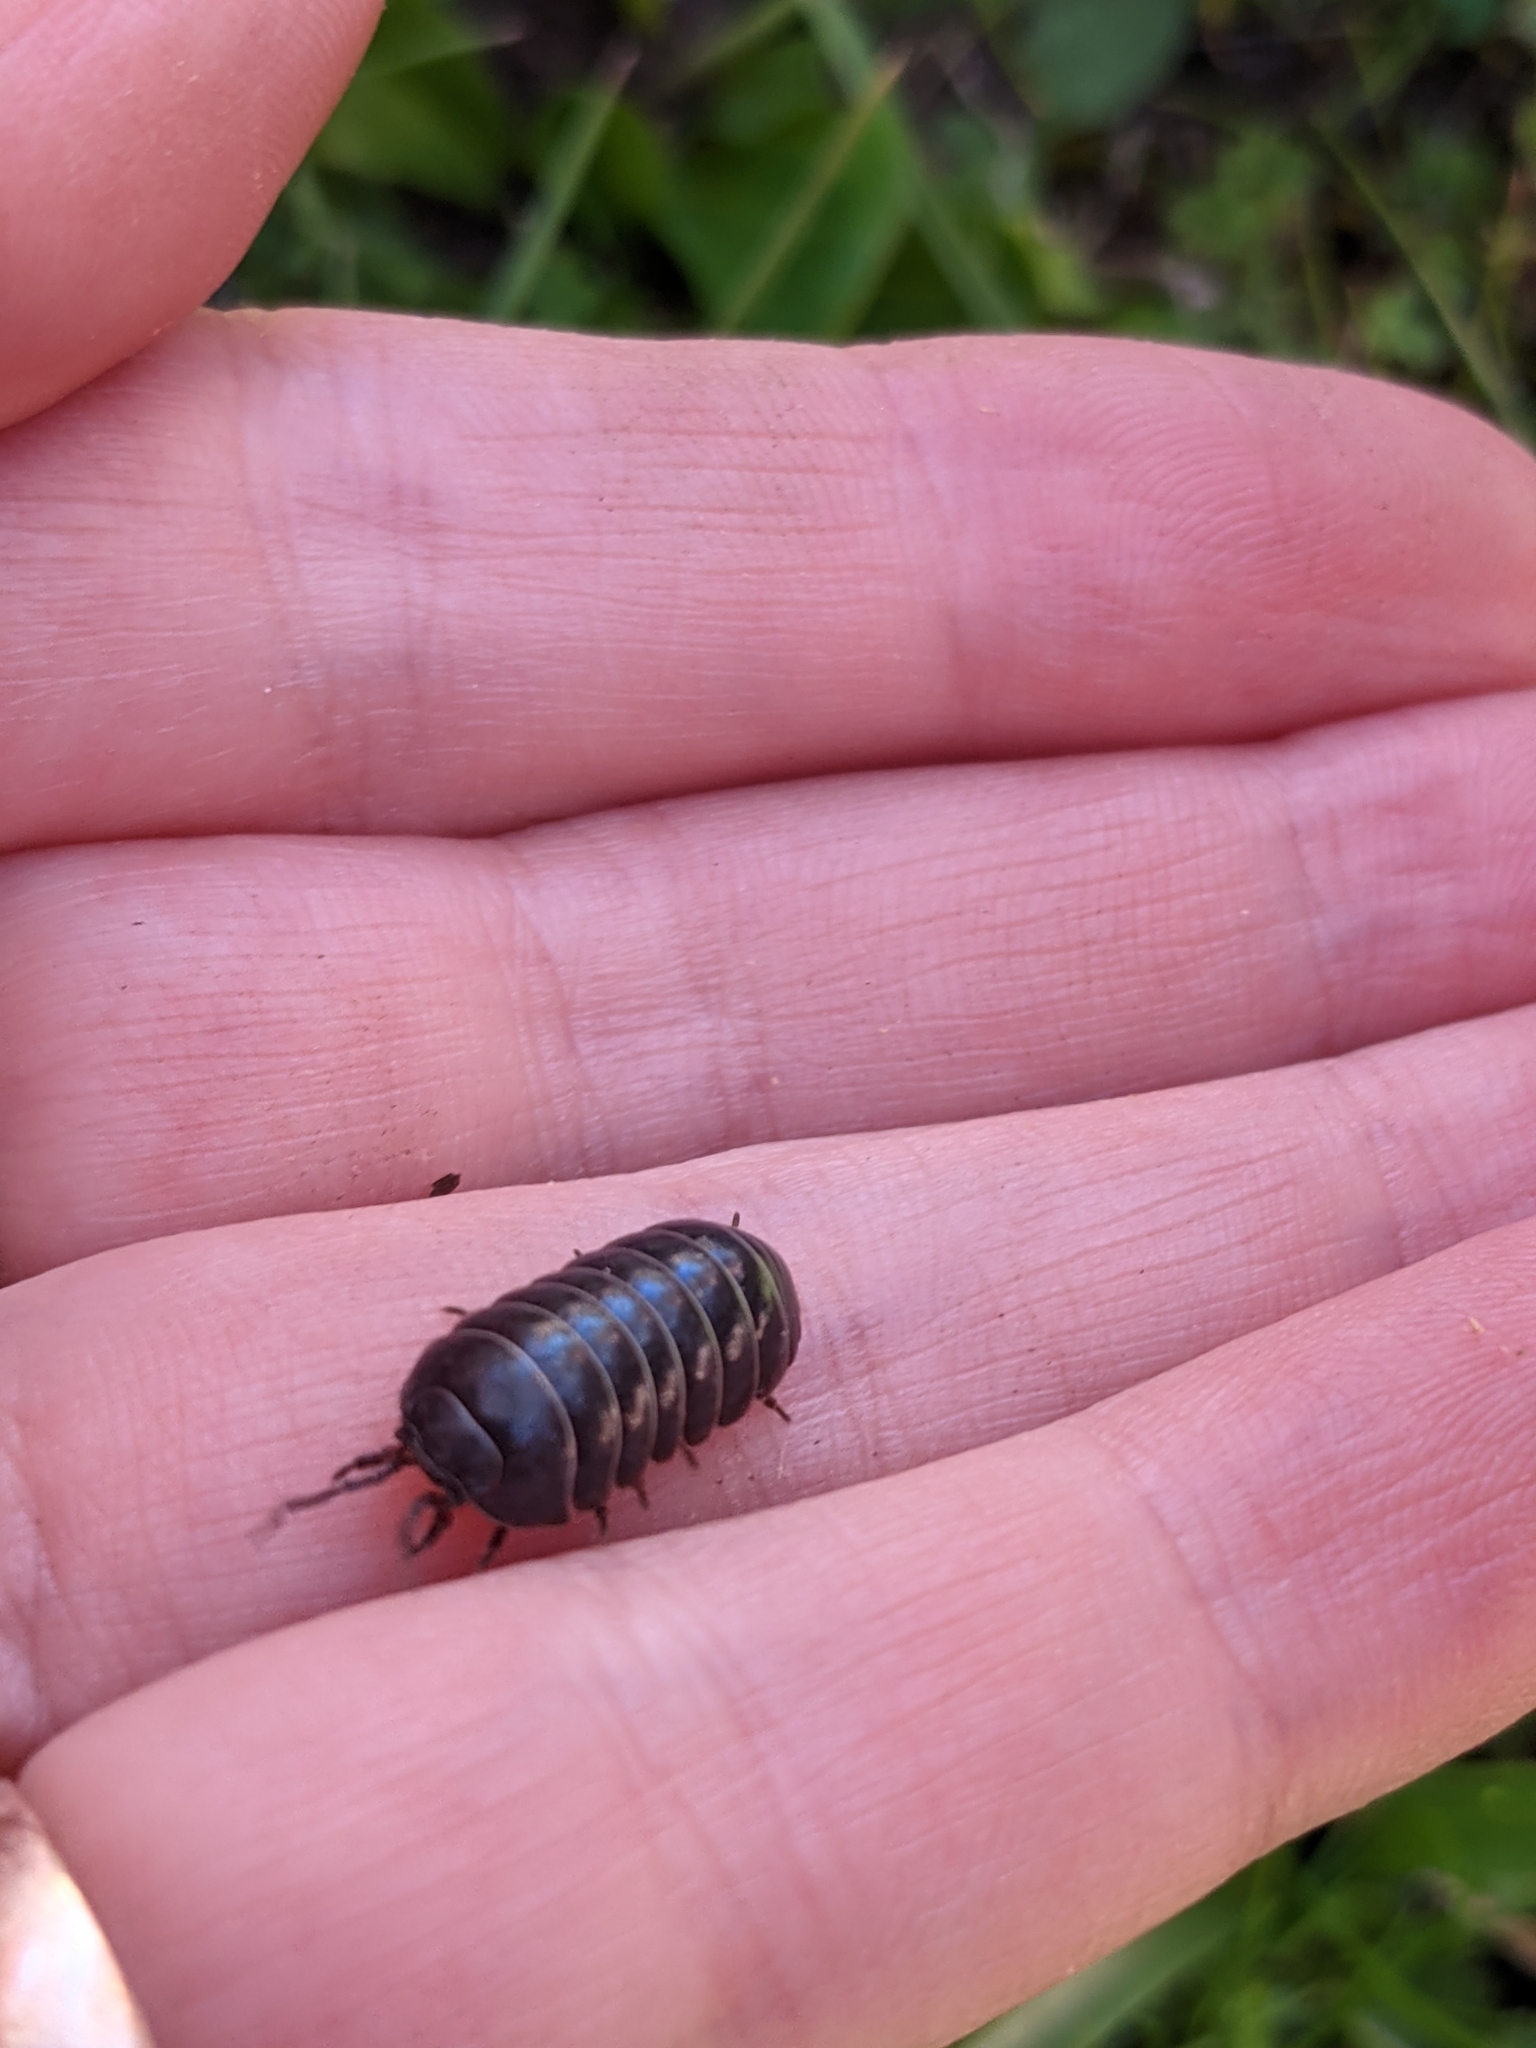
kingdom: Animalia
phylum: Arthropoda
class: Malacostraca
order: Isopoda
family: Armadillidiidae
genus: Armadillidium
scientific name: Armadillidium vulgare
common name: Common pill woodlouse
